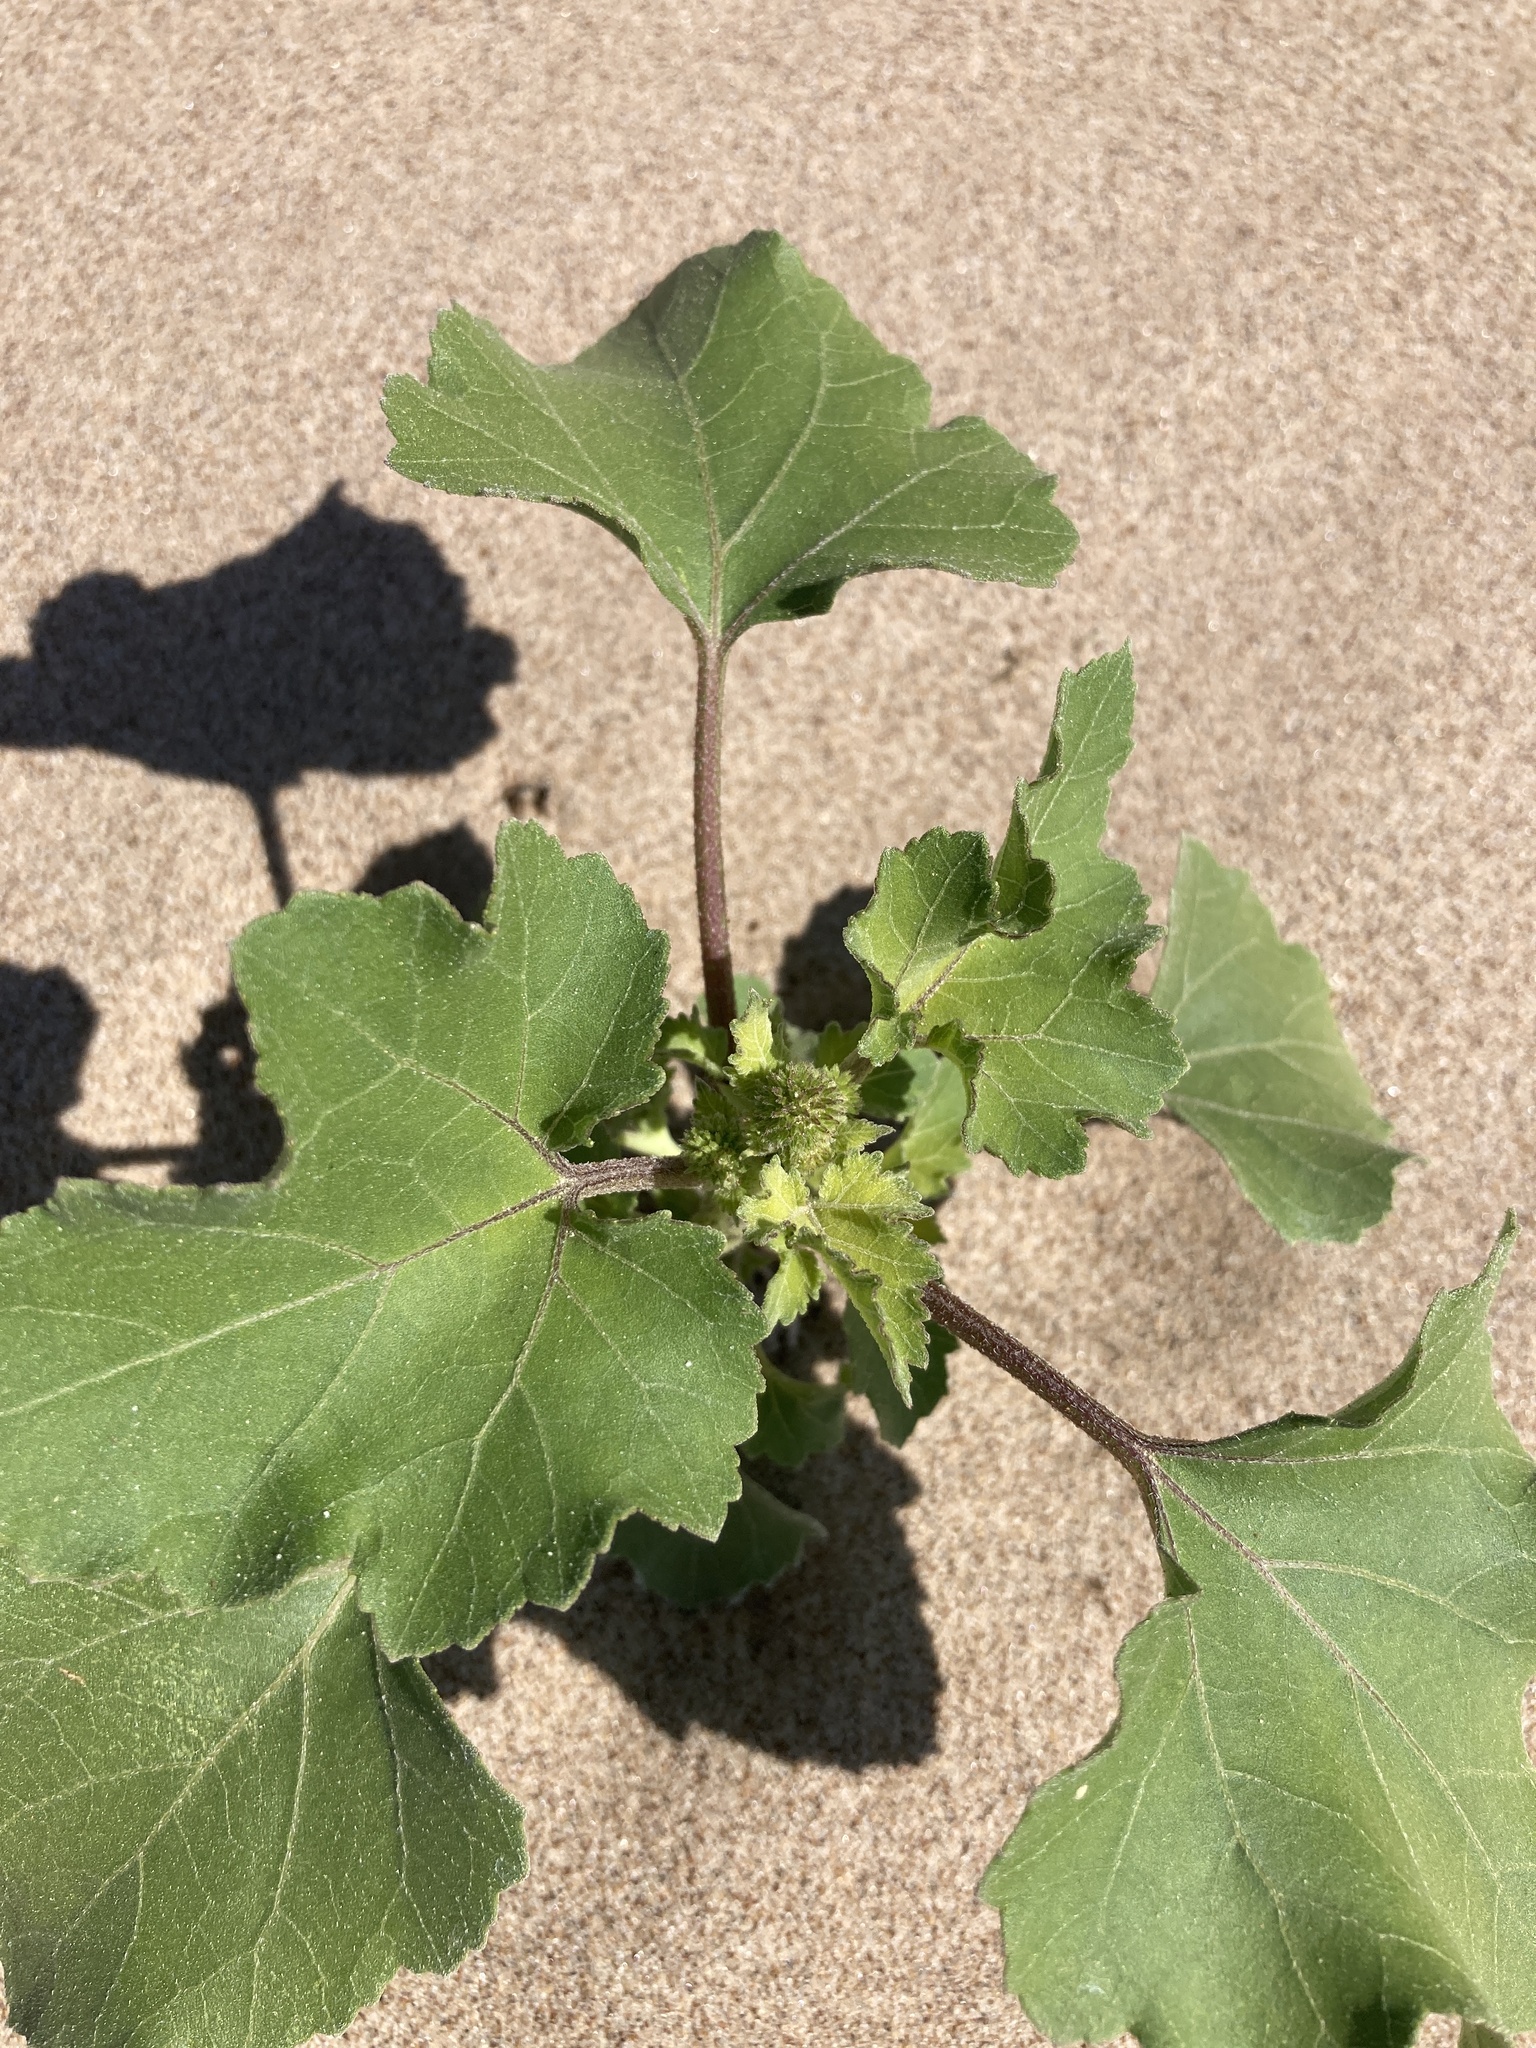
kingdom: Plantae
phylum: Tracheophyta
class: Magnoliopsida
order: Asterales
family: Asteraceae
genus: Xanthium
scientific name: Xanthium orientale
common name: Californian burr
